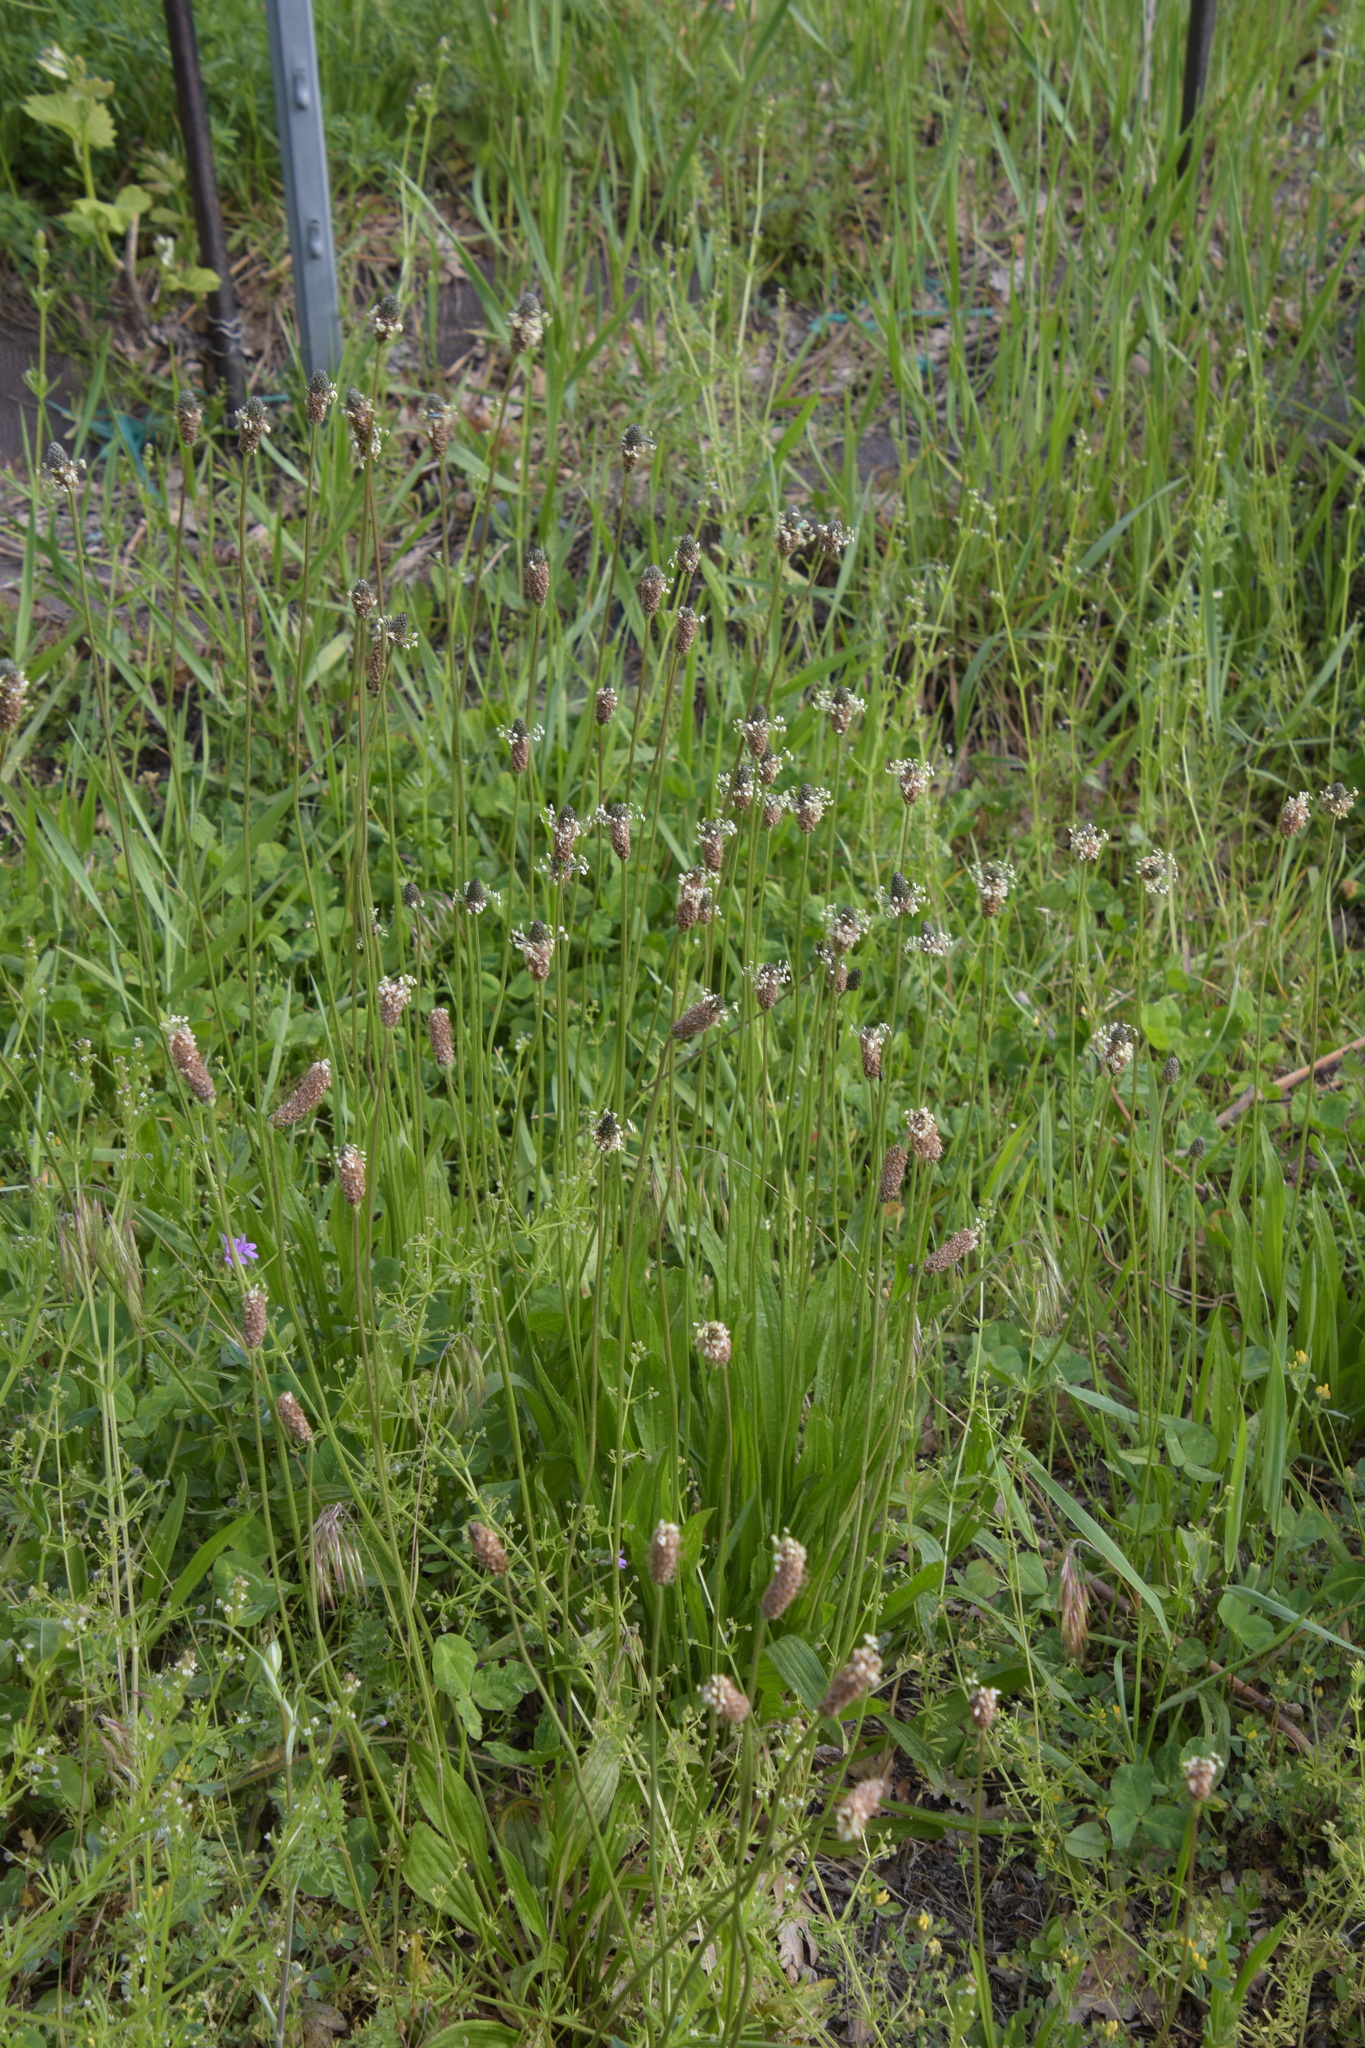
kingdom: Plantae
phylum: Tracheophyta
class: Magnoliopsida
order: Lamiales
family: Plantaginaceae
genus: Plantago
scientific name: Plantago lanceolata
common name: Ribwort plantain
